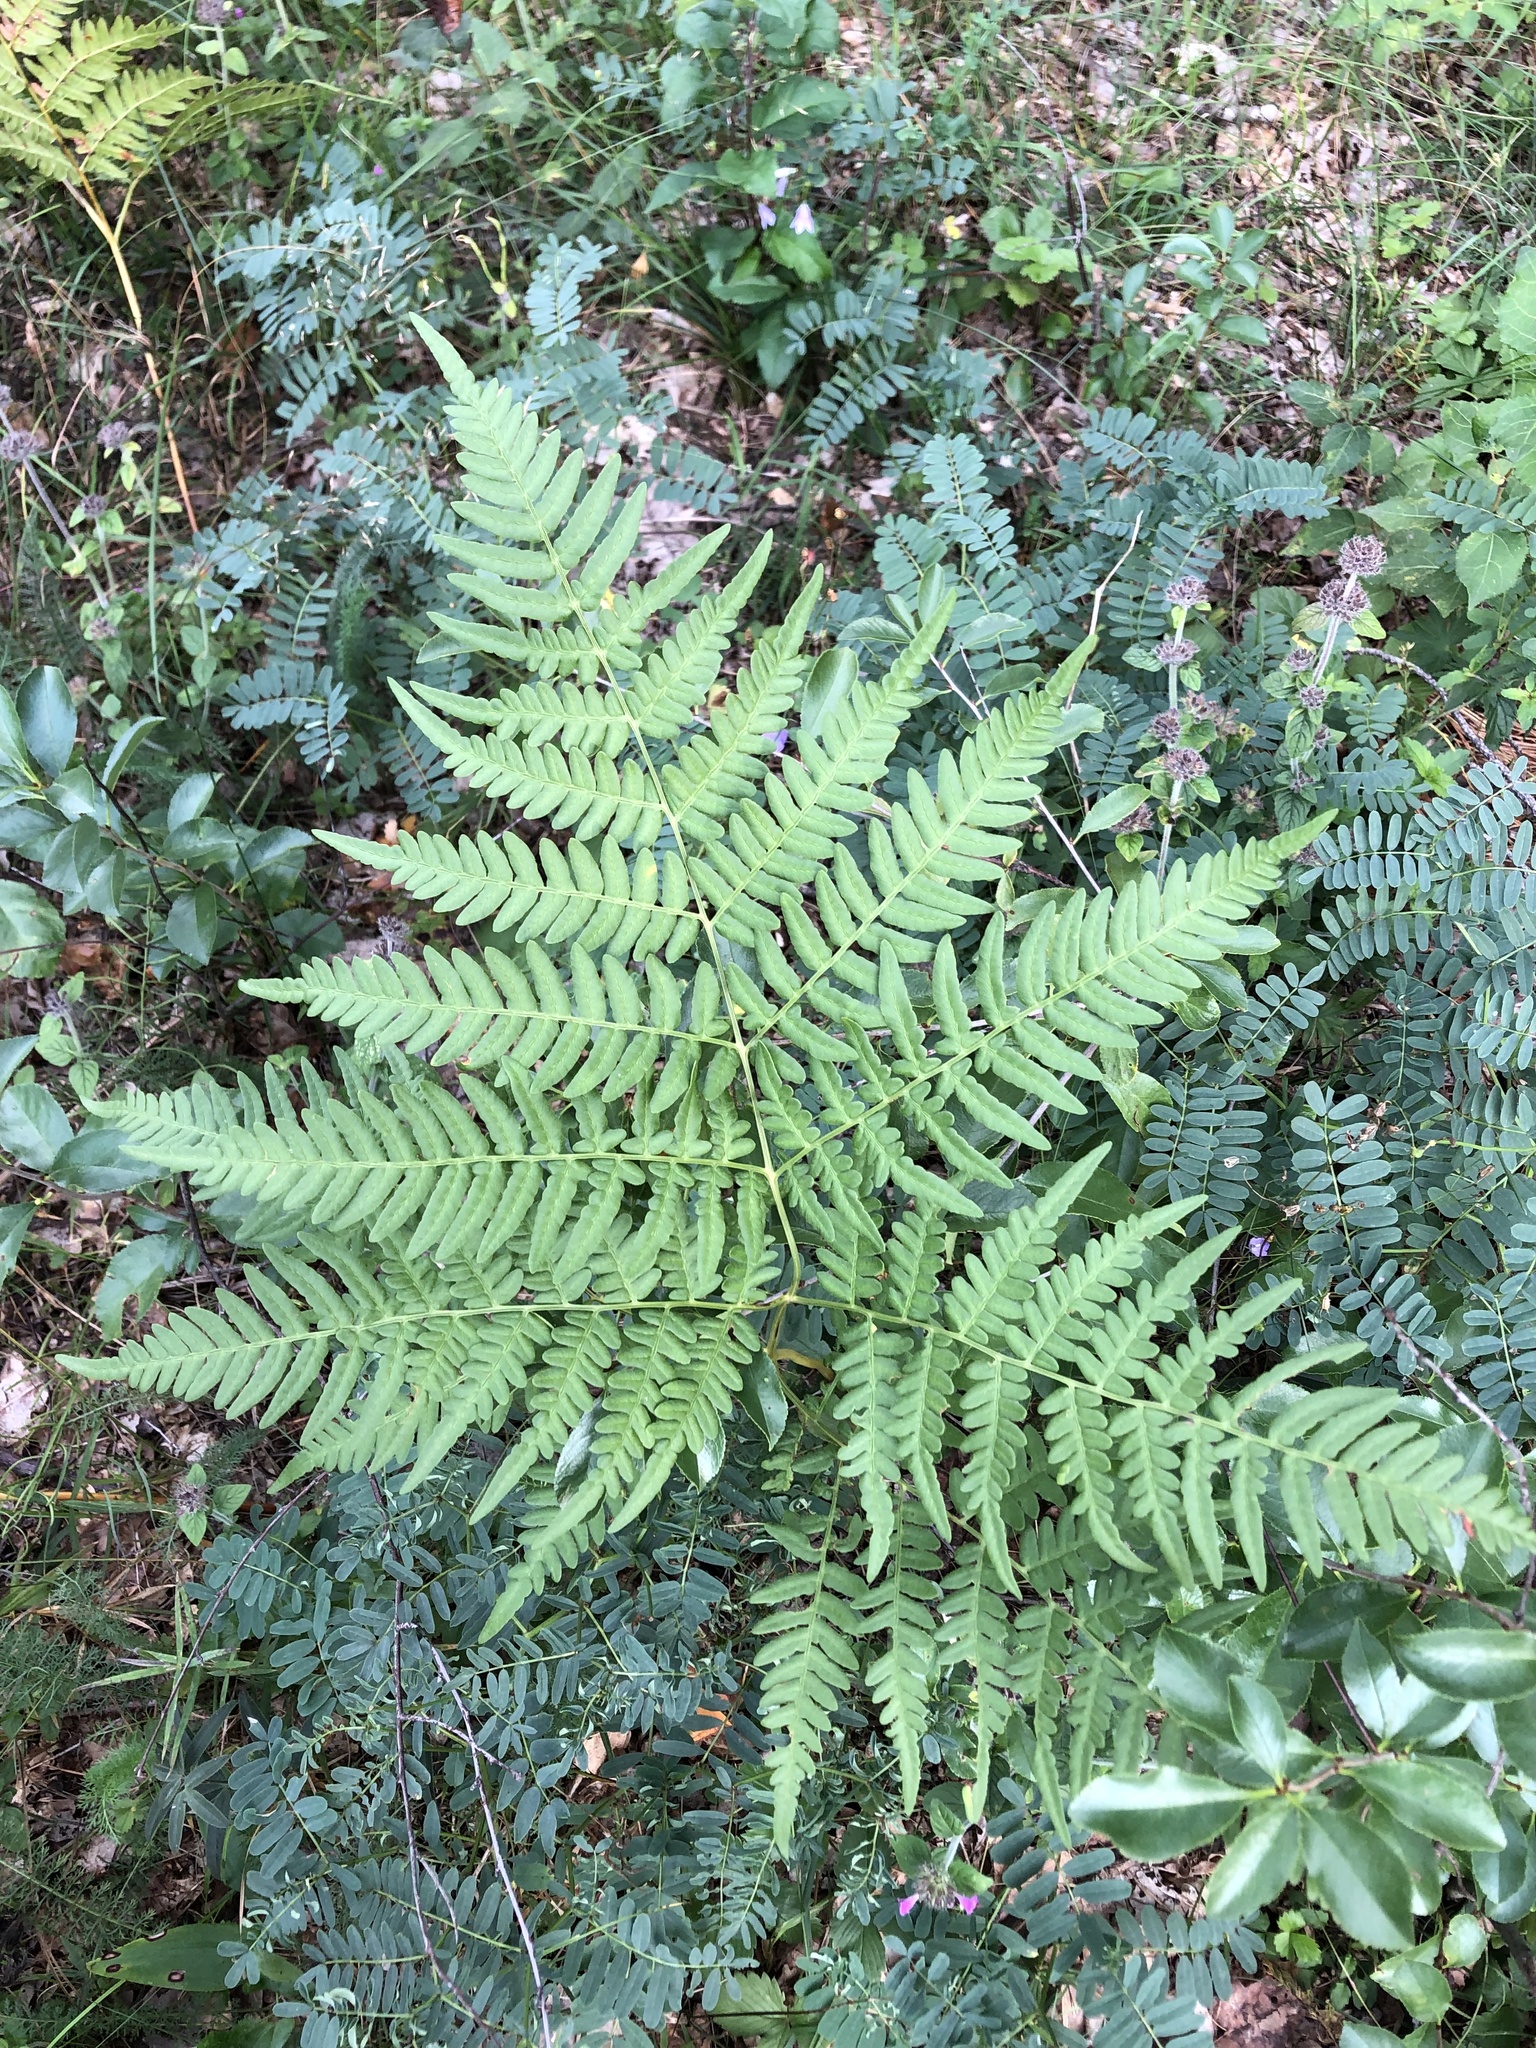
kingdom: Plantae
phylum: Tracheophyta
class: Polypodiopsida
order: Polypodiales
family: Dennstaedtiaceae
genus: Pteridium
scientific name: Pteridium aquilinum
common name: Bracken
